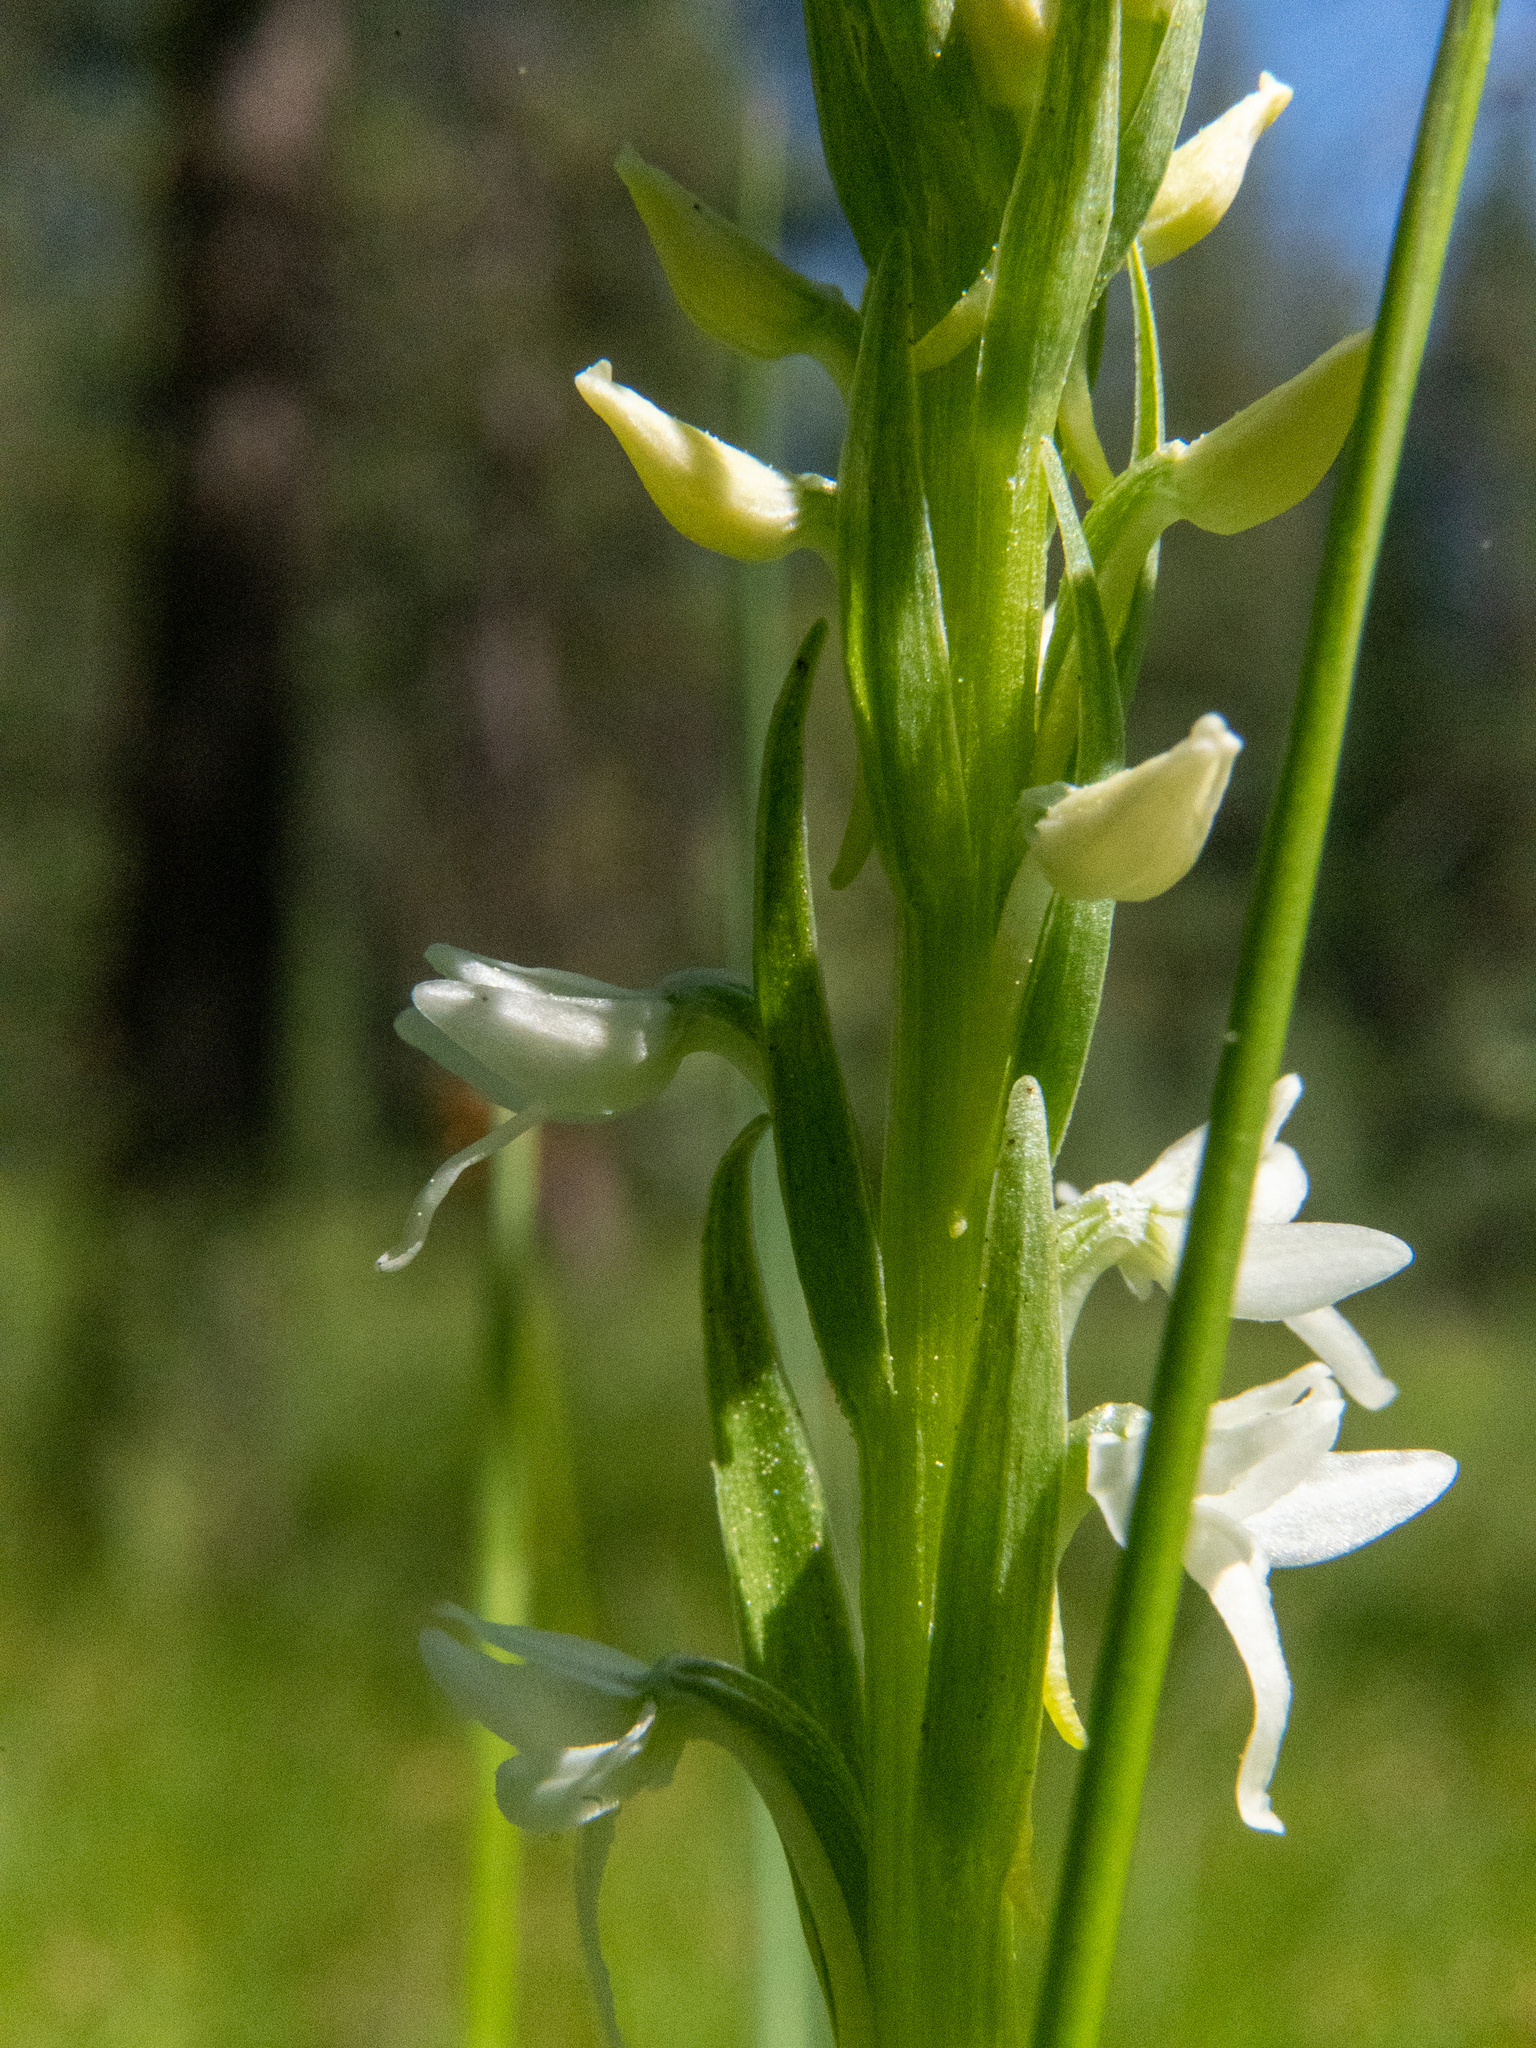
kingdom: Plantae
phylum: Tracheophyta
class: Liliopsida
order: Asparagales
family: Orchidaceae
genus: Platanthera
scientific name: Platanthera dilatata
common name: Bog candles
